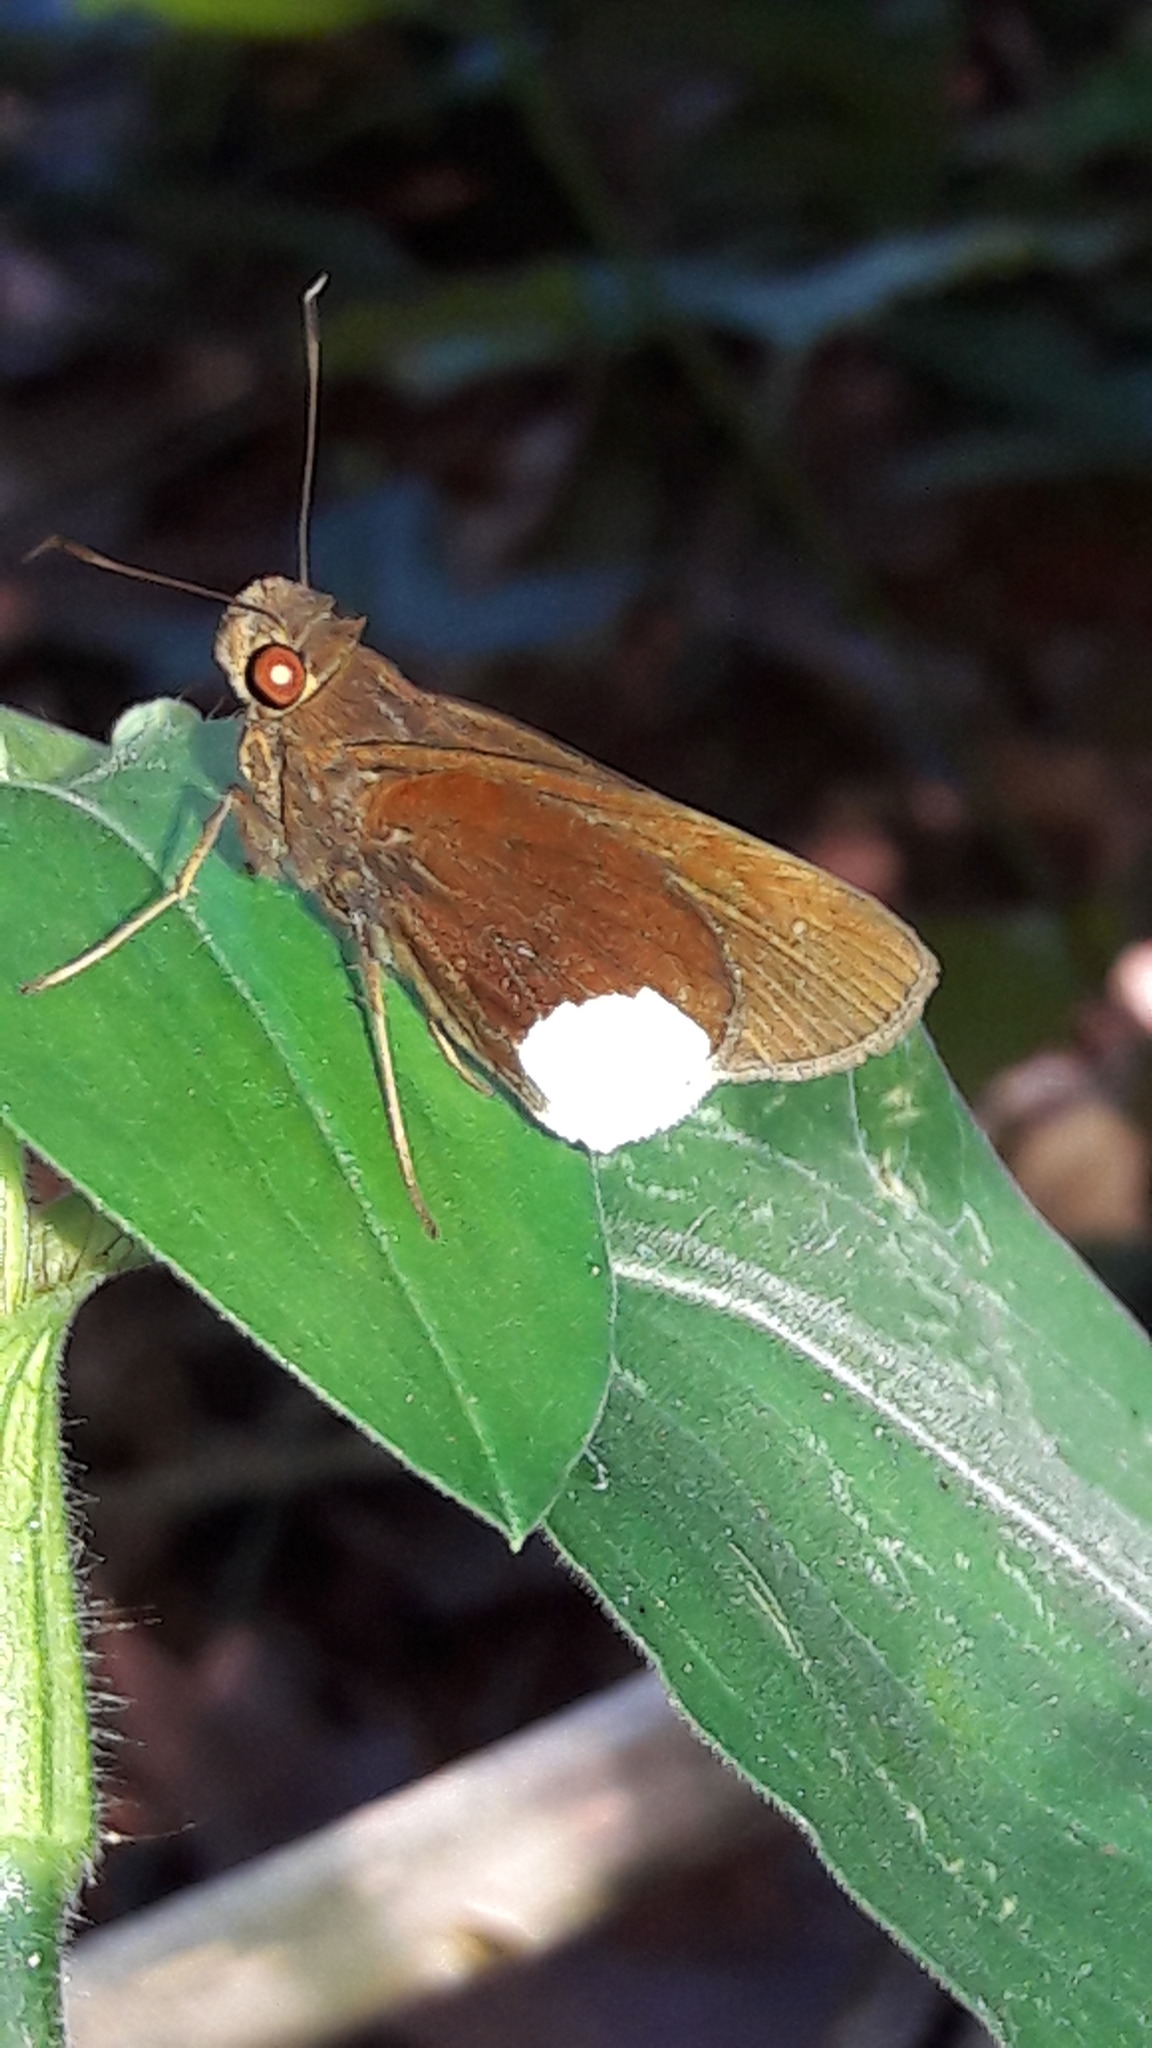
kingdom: Animalia
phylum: Arthropoda
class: Insecta
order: Lepidoptera
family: Hesperiidae
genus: Cobalus
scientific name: Cobalus virbius
